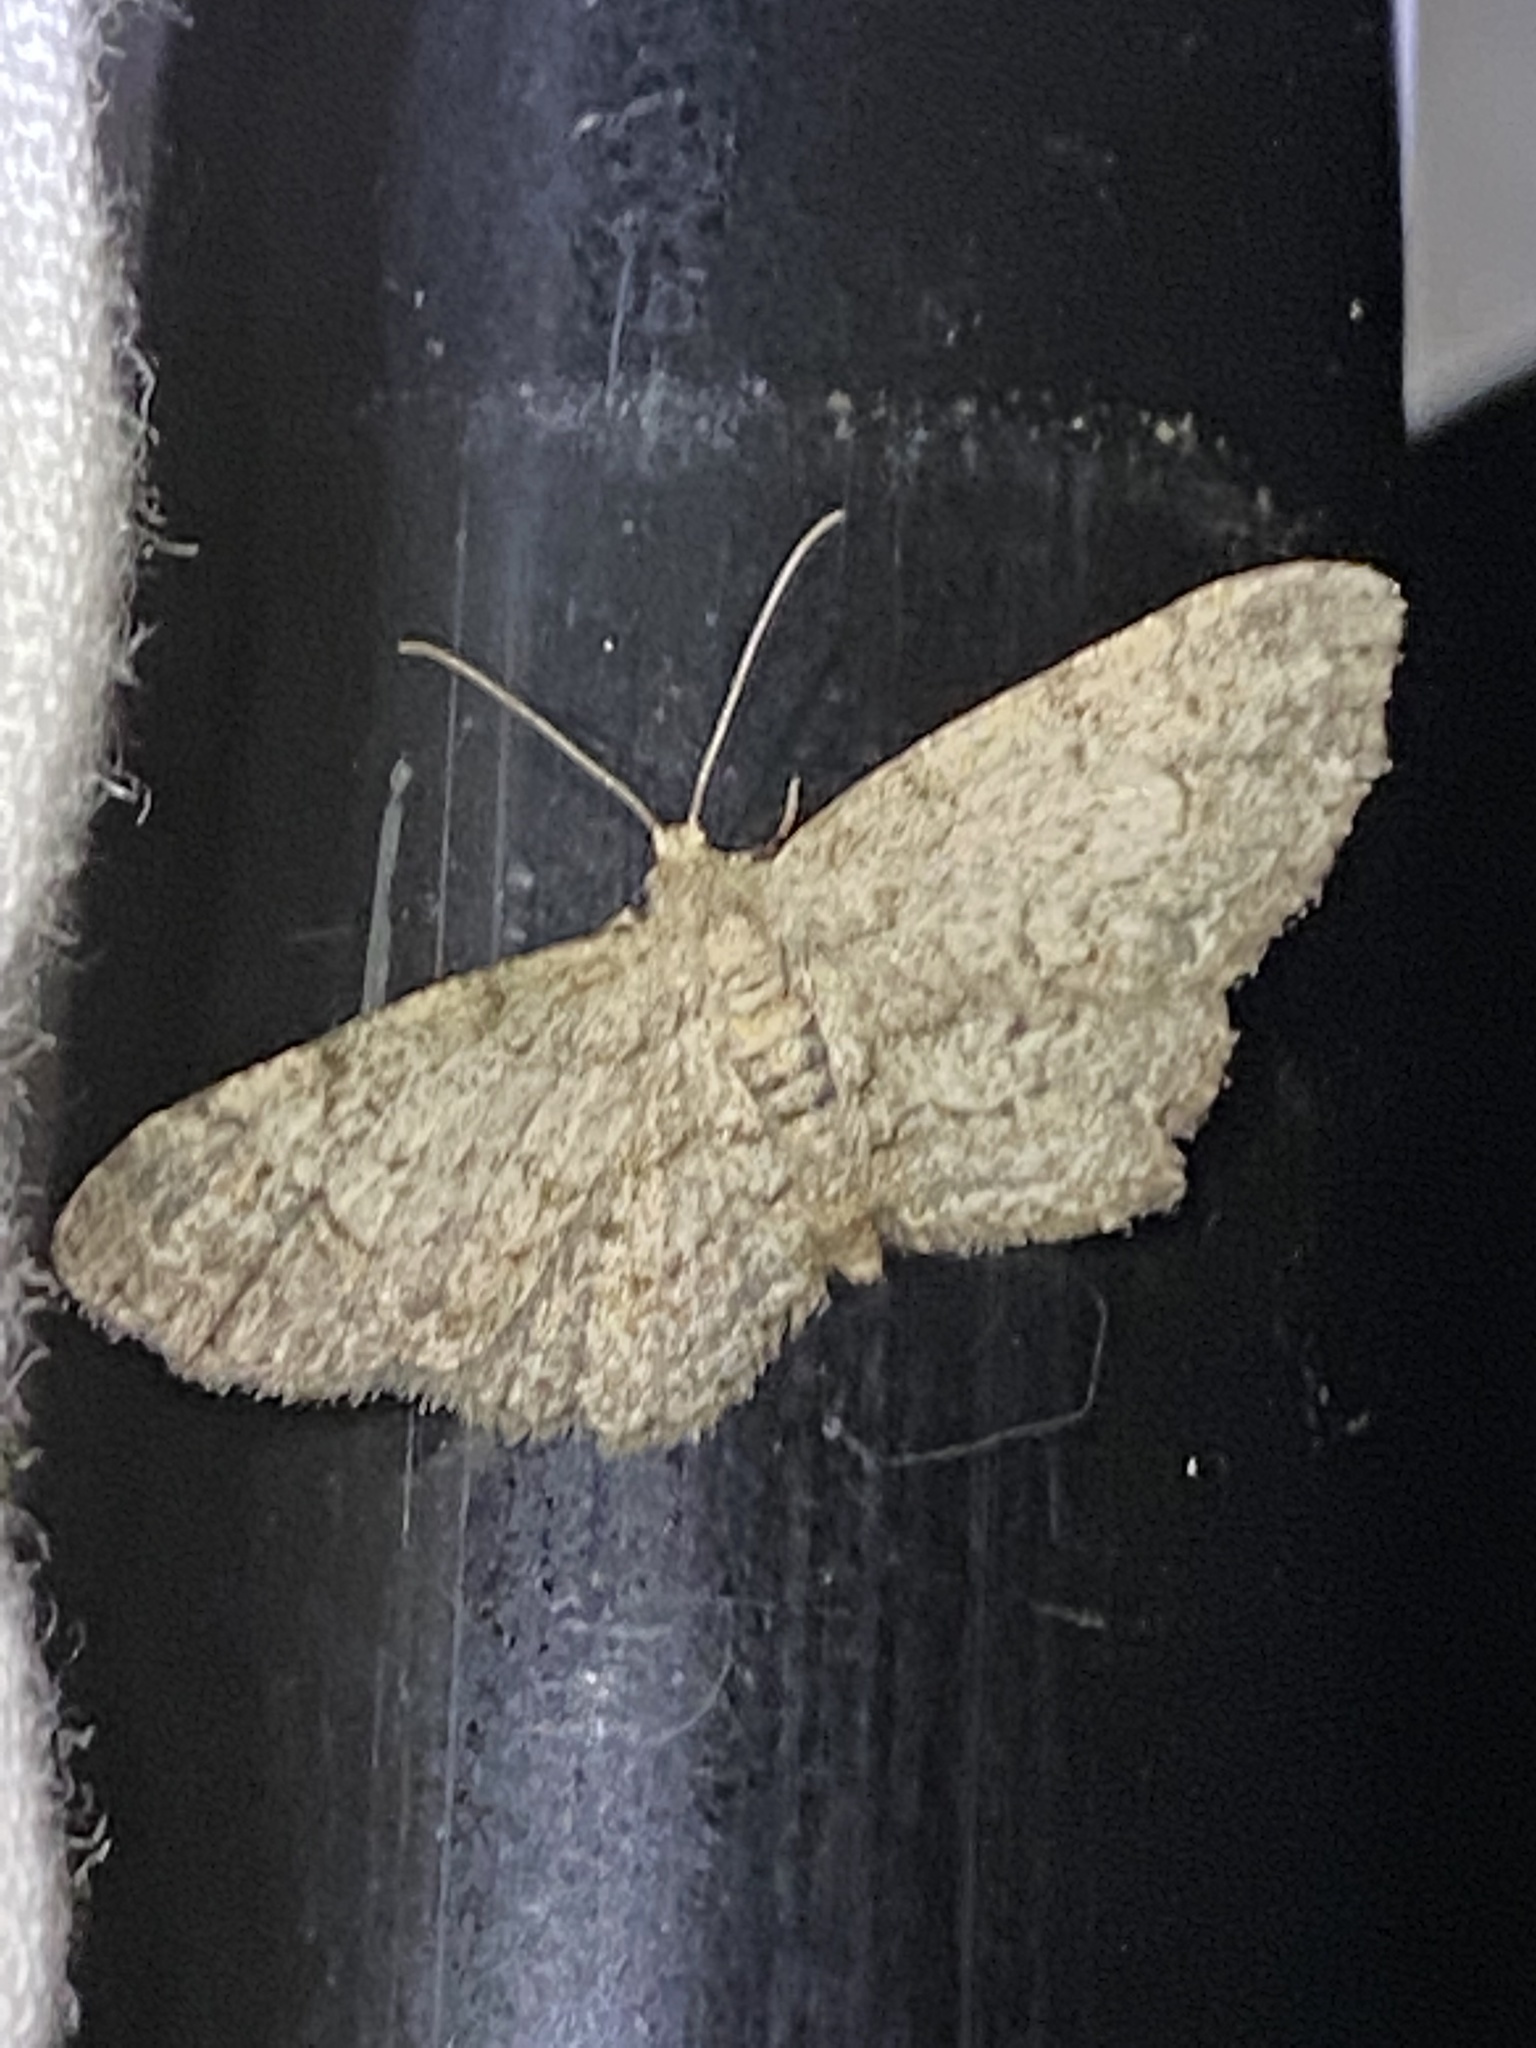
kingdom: Animalia
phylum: Arthropoda
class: Insecta
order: Lepidoptera
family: Geometridae
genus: Glenoides
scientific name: Glenoides texanaria
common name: Texas gray
